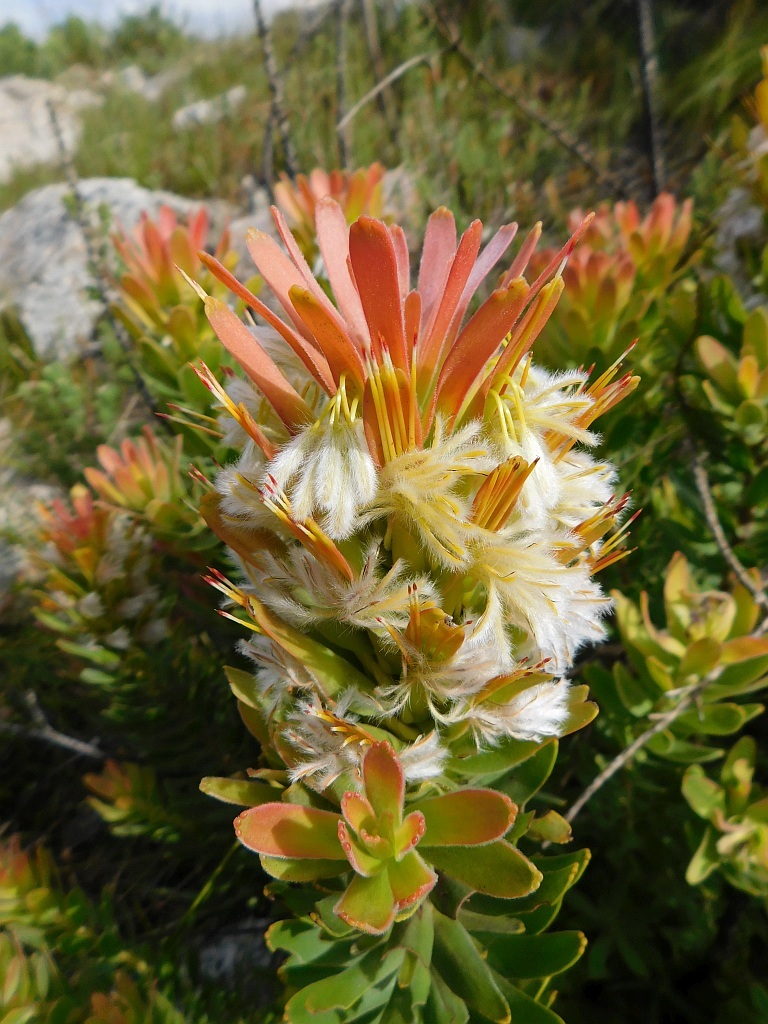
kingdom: Plantae
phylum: Tracheophyta
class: Magnoliopsida
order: Proteales
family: Proteaceae
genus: Mimetes
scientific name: Mimetes cucullatus
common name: Common pagoda
